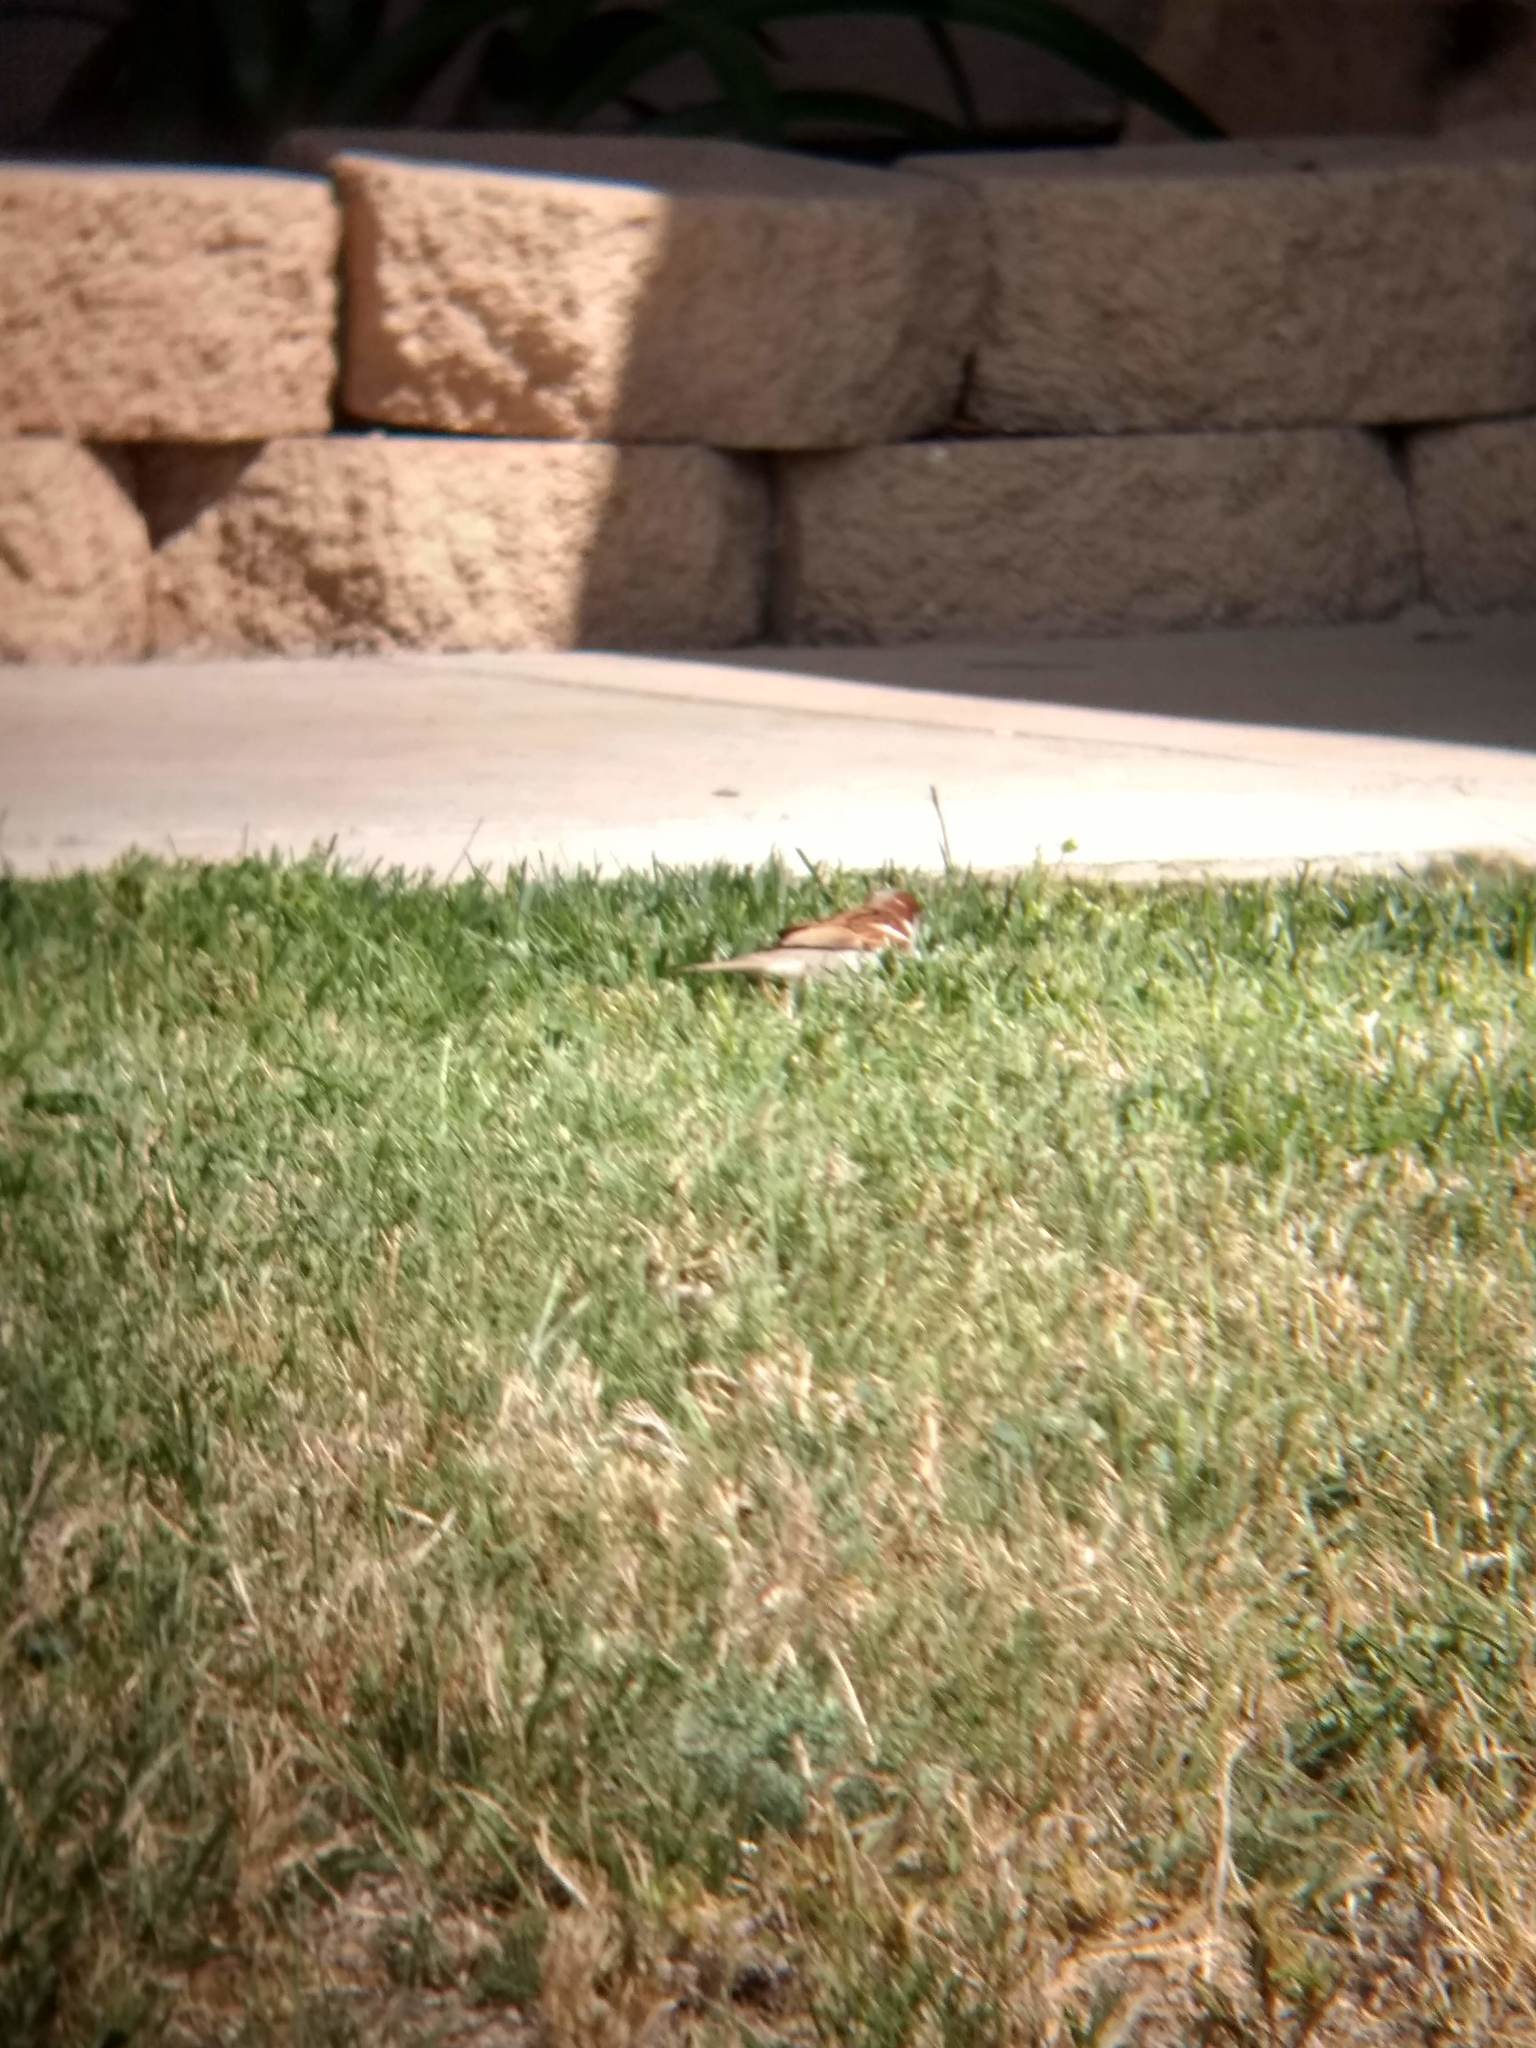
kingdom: Animalia
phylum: Chordata
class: Aves
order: Passeriformes
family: Passeridae
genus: Passer
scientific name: Passer domesticus
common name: House sparrow
